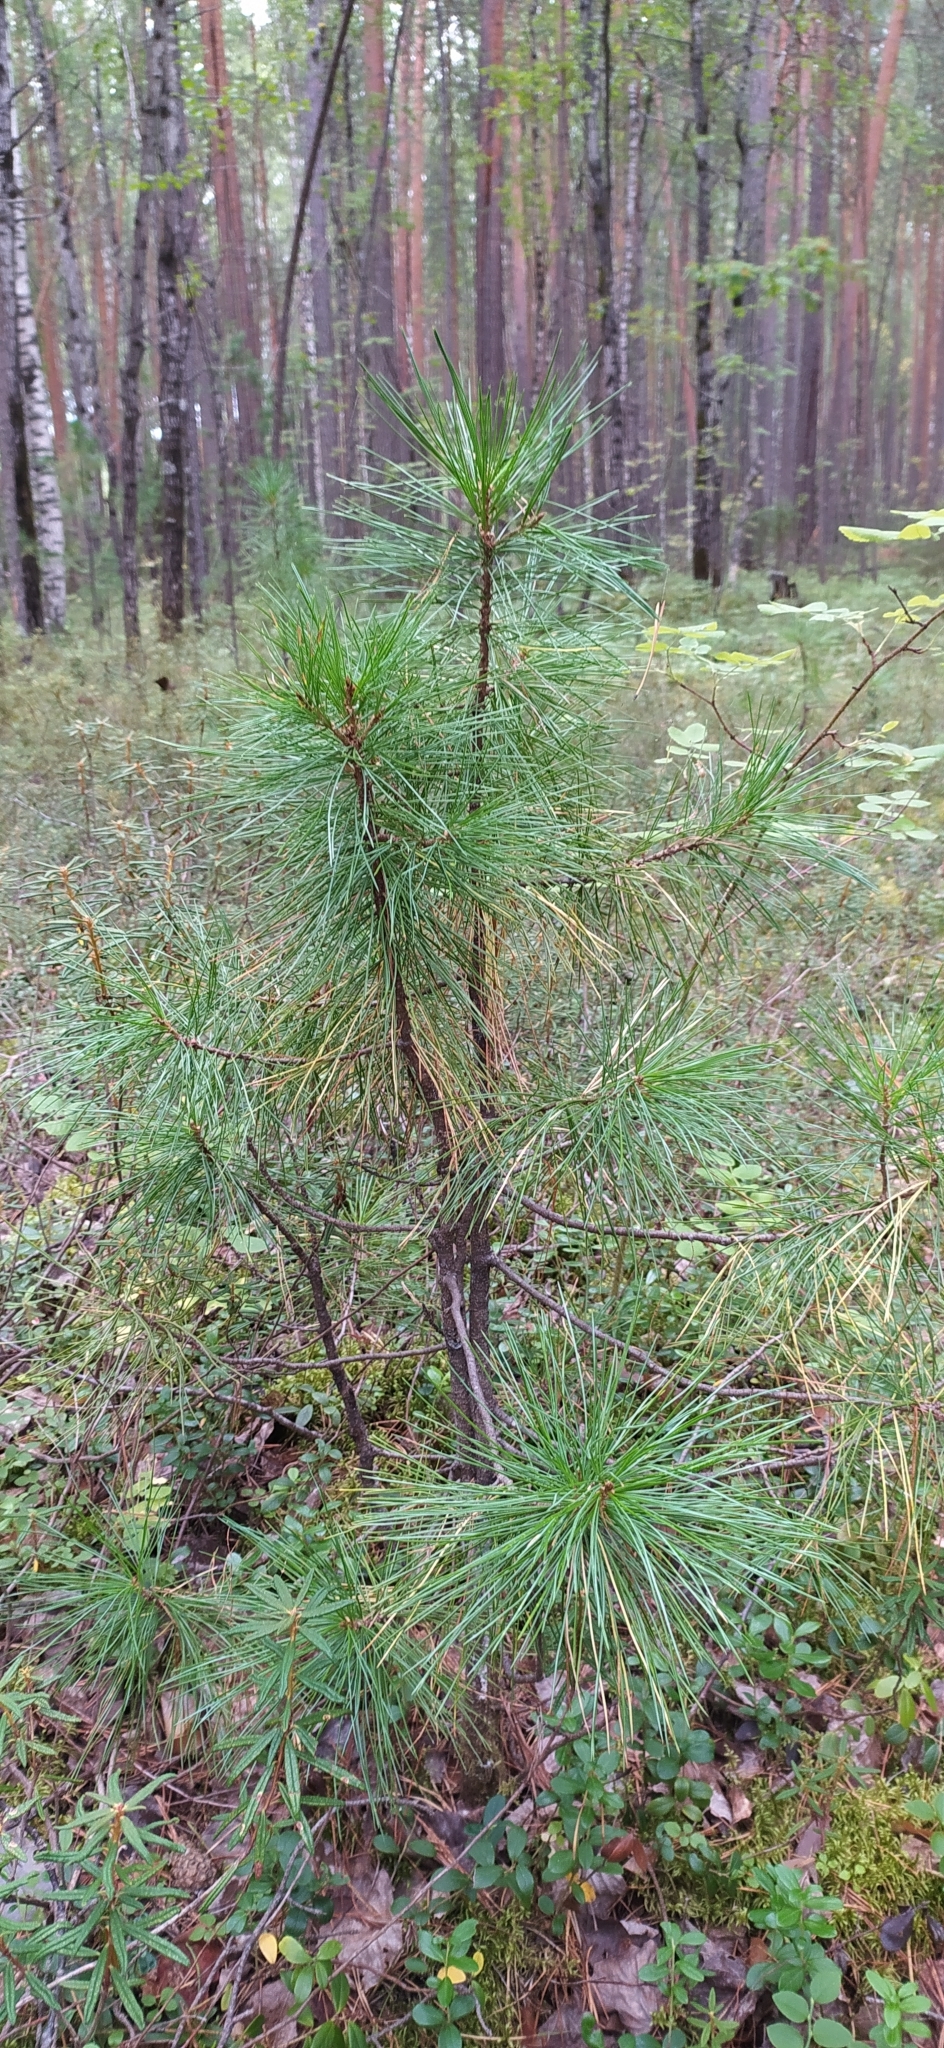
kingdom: Plantae
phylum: Tracheophyta
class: Pinopsida
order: Pinales
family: Pinaceae
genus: Pinus
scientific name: Pinus sibirica
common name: Siberian pine
